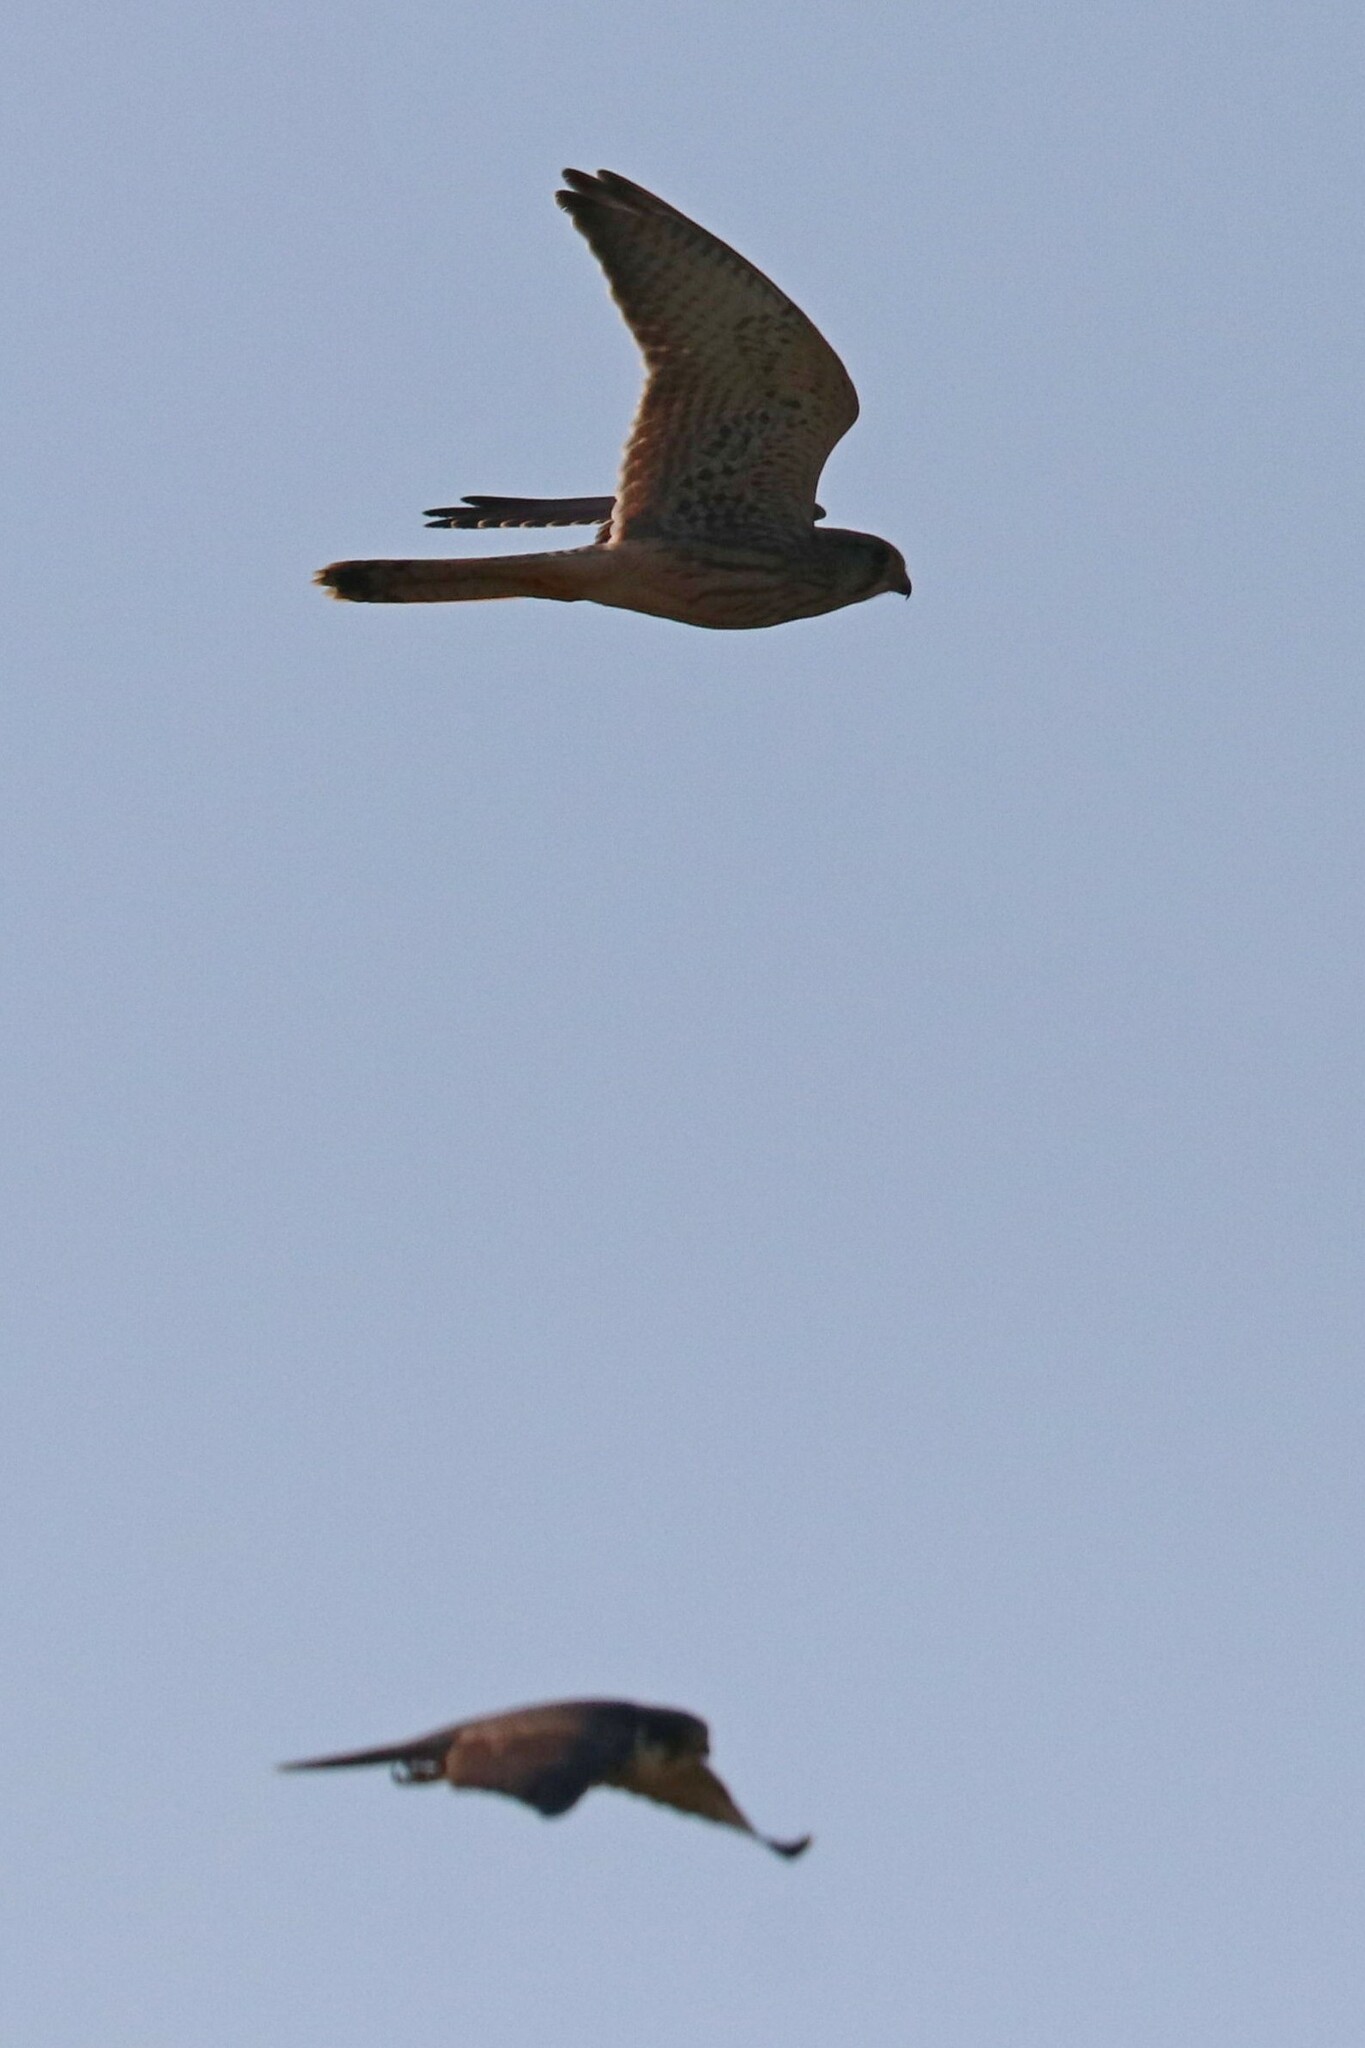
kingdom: Animalia
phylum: Chordata
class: Aves
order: Falconiformes
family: Falconidae
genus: Falco
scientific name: Falco subbuteo
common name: Eurasian hobby
